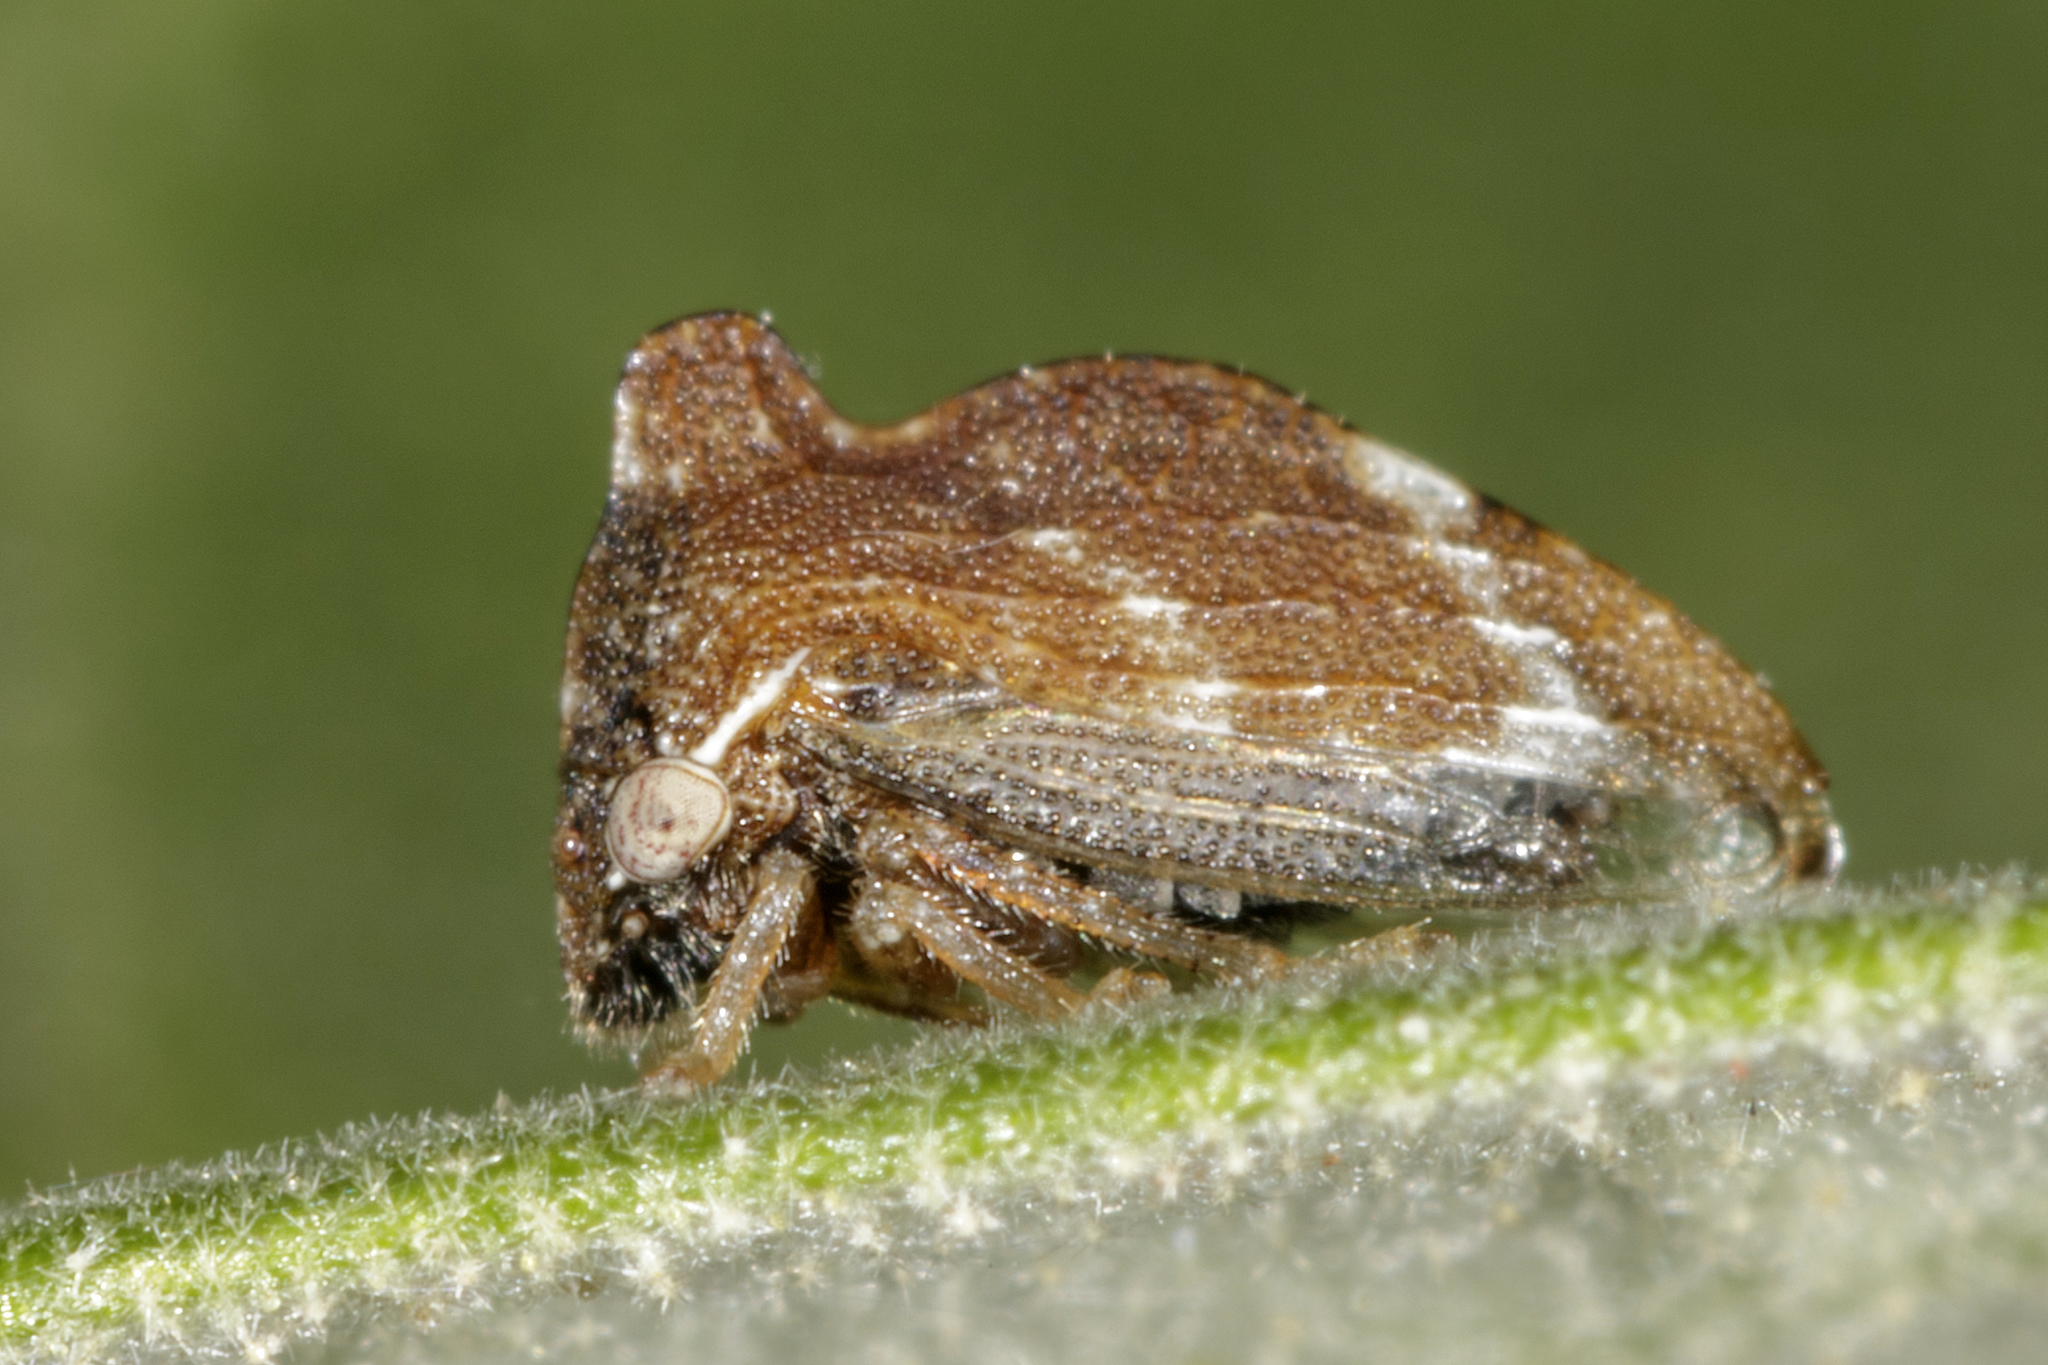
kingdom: Animalia
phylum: Arthropoda
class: Insecta
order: Hemiptera
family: Membracidae
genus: Entylia
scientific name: Entylia
